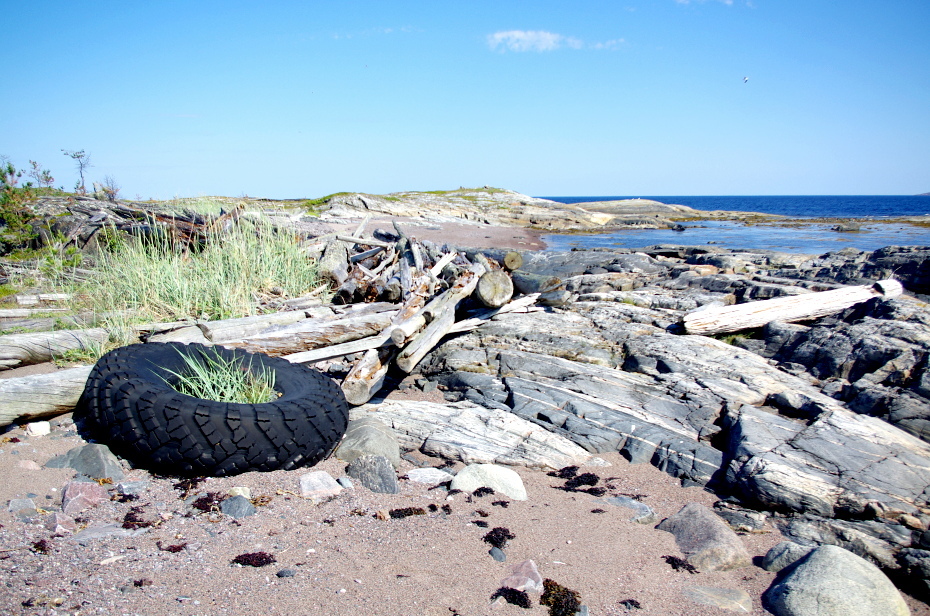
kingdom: Animalia
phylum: Chordata
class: Mammalia
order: Lagomorpha
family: Leporidae
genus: Lepus
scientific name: Lepus timidus
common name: Mountain hare
